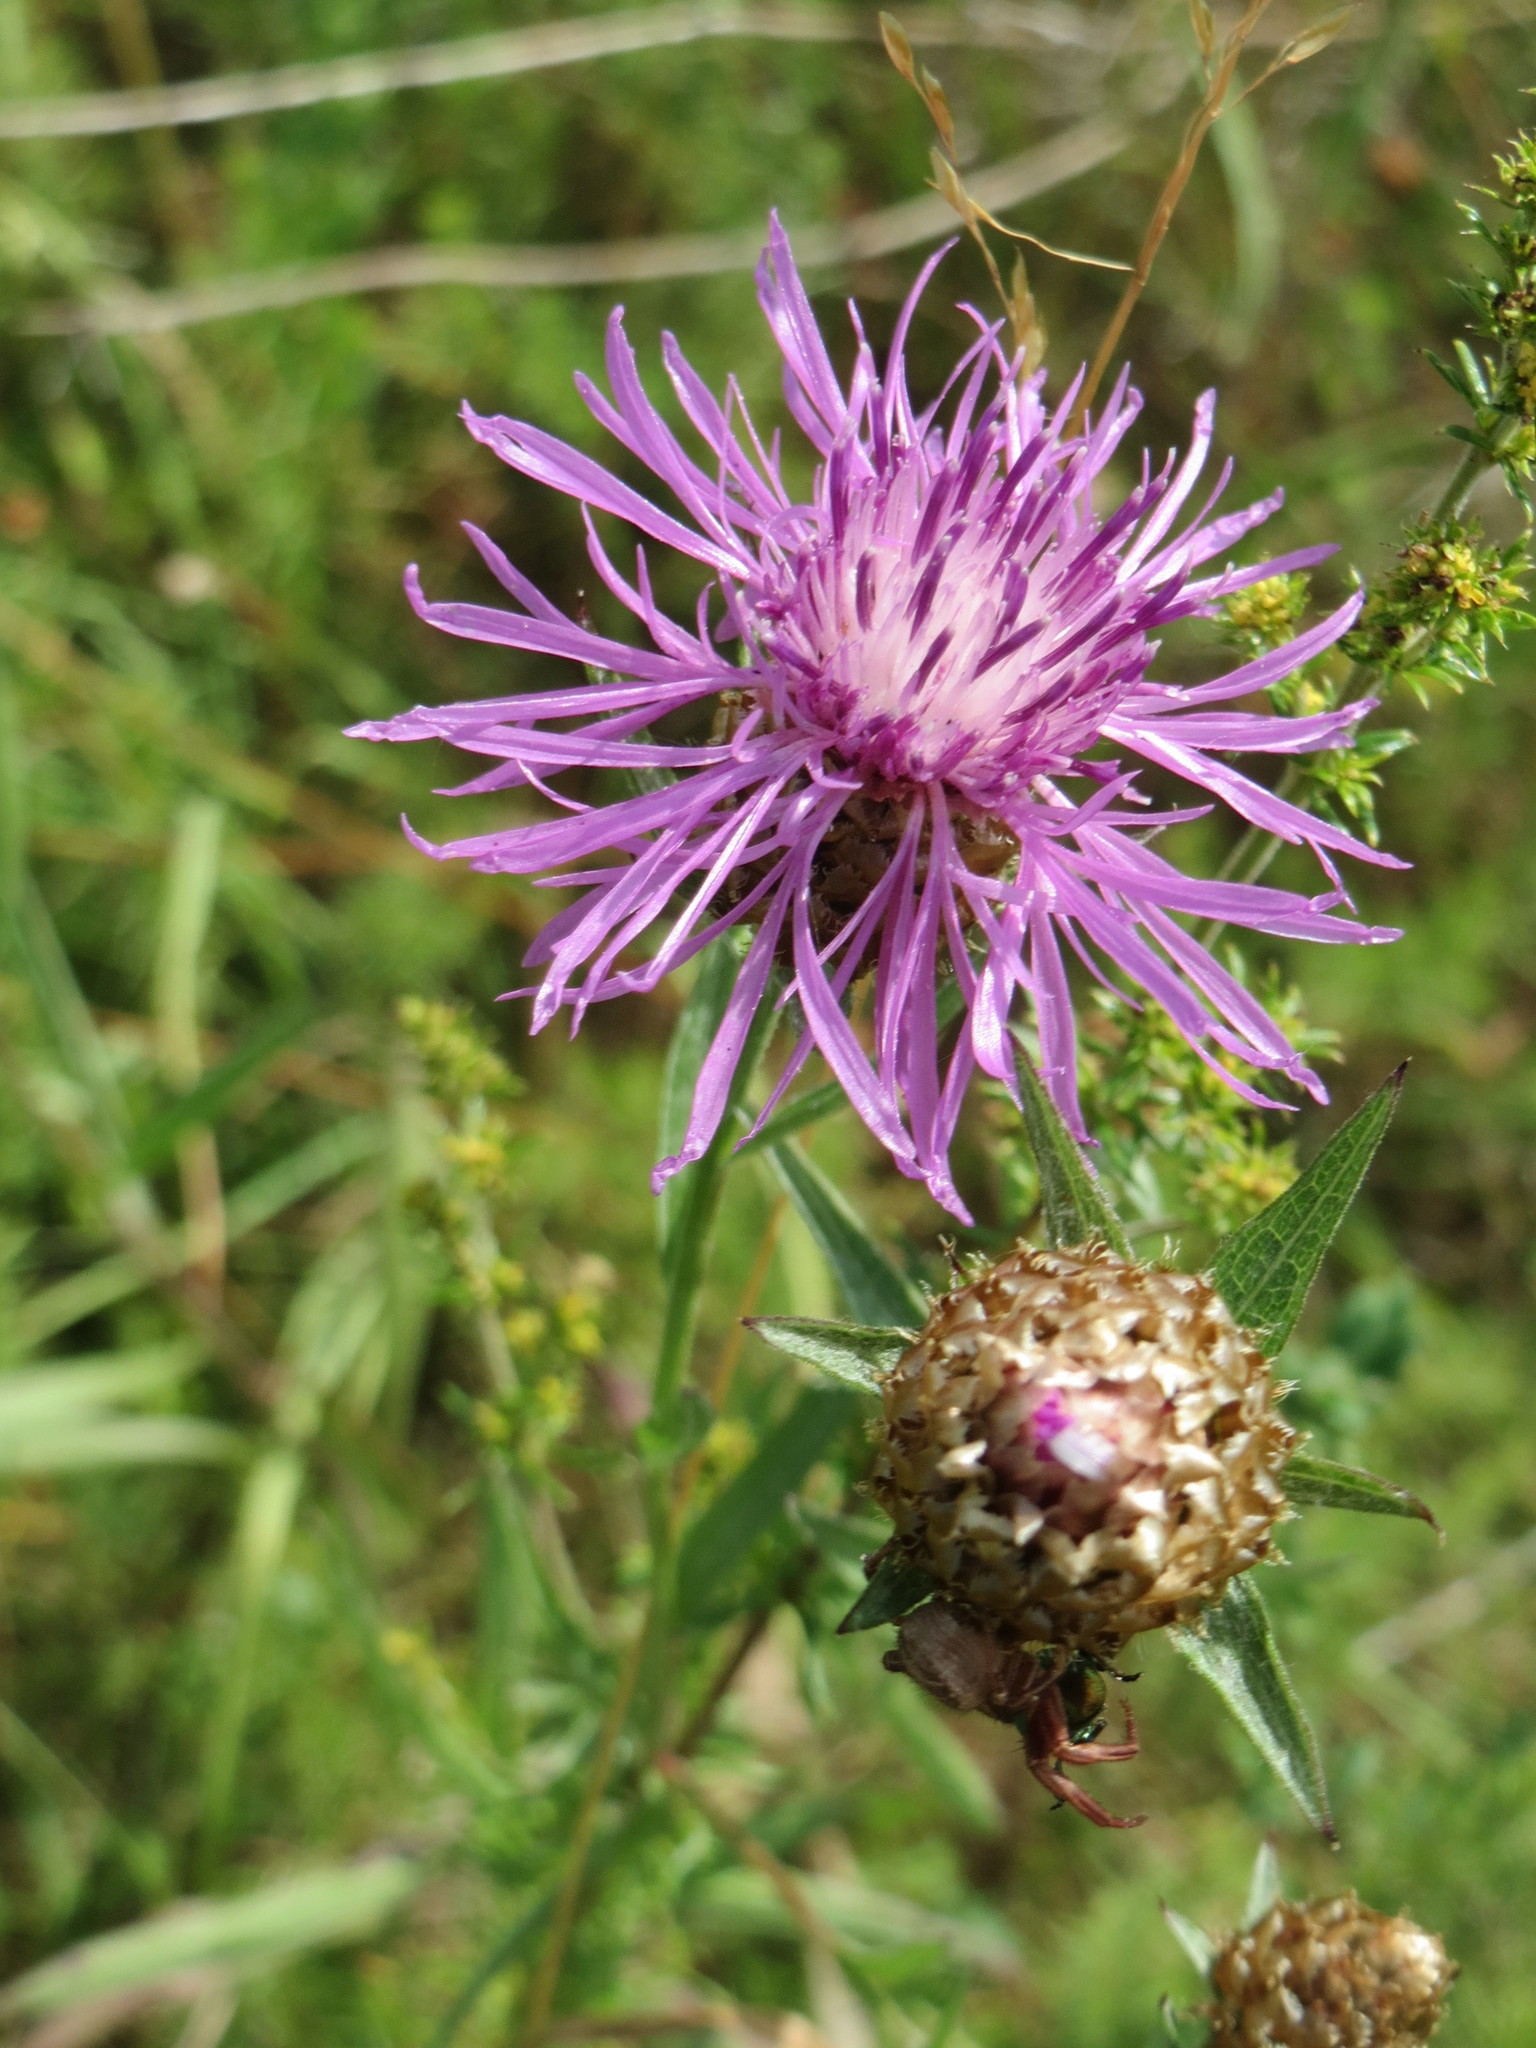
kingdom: Plantae
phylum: Tracheophyta
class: Magnoliopsida
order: Asterales
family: Asteraceae
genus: Centaurea
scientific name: Centaurea jacea
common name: Brown knapweed
